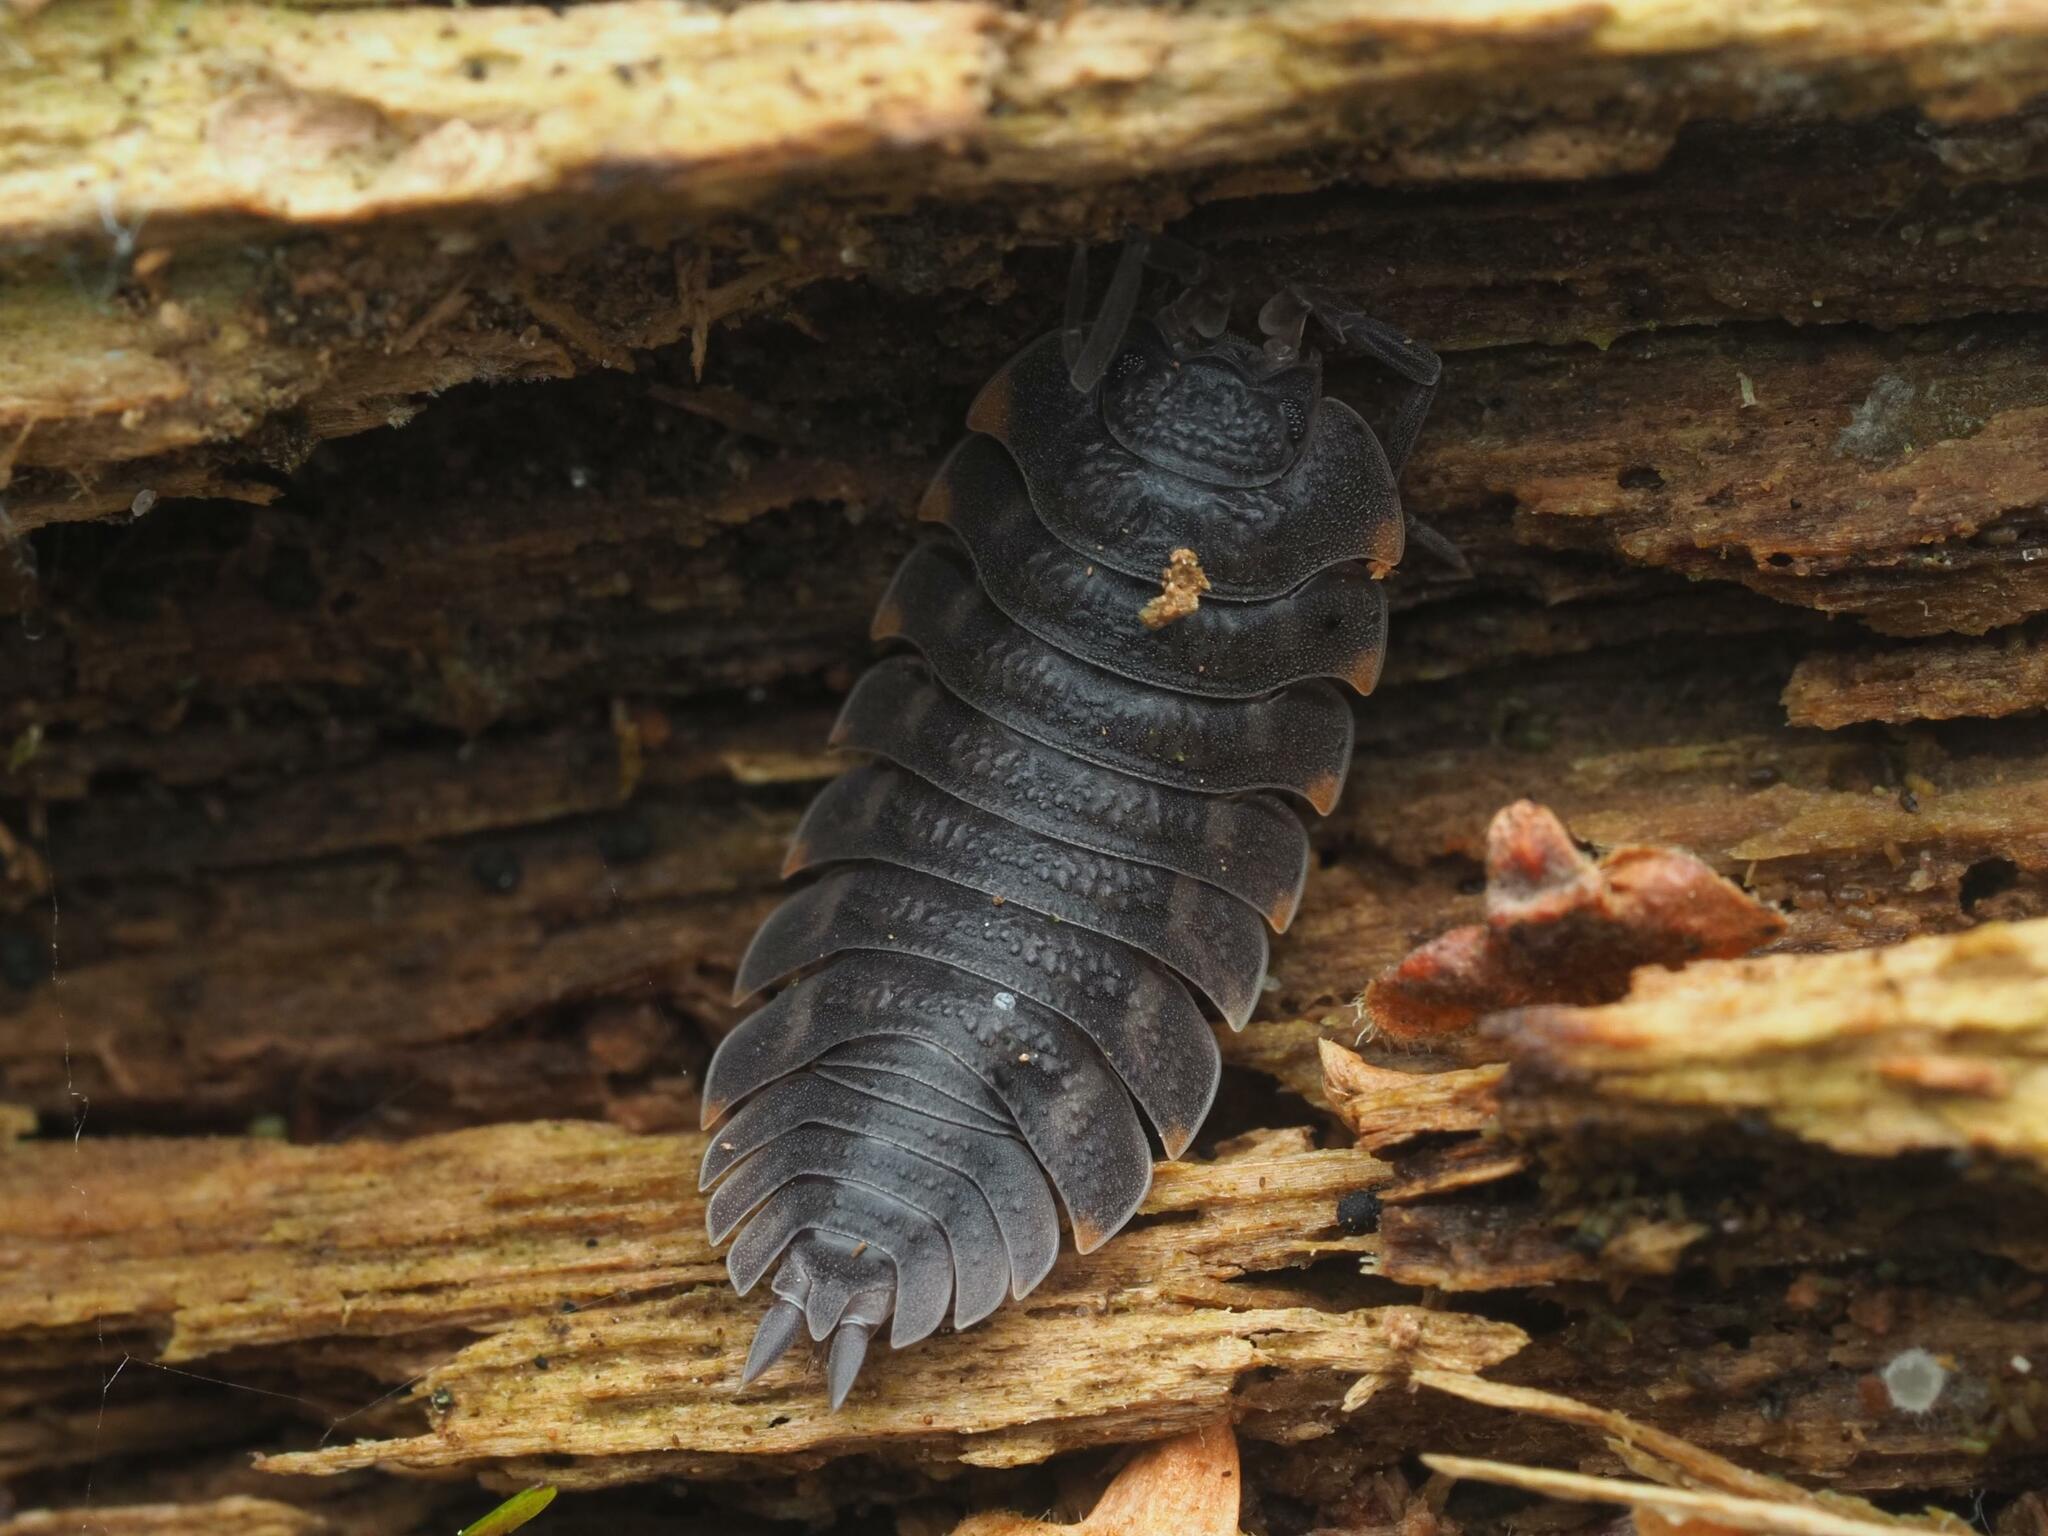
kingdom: Animalia
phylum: Arthropoda
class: Malacostraca
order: Isopoda
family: Trachelipodidae
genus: Trachelipus
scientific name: Trachelipus ratzeburgii
